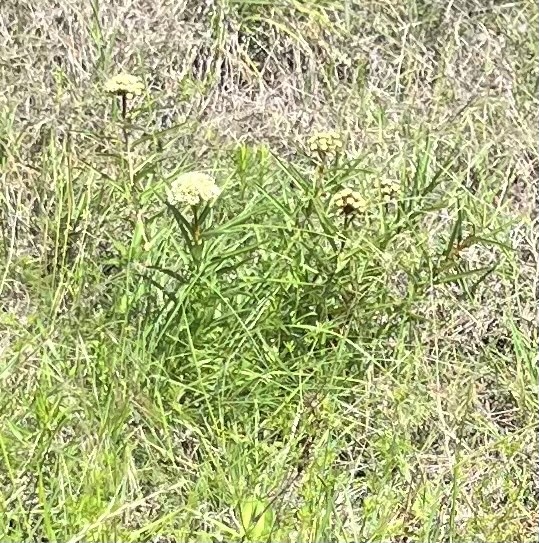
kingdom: Plantae
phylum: Tracheophyta
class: Magnoliopsida
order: Gentianales
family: Apocynaceae
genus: Asclepias
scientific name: Asclepias asperula
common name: Antelope horns
